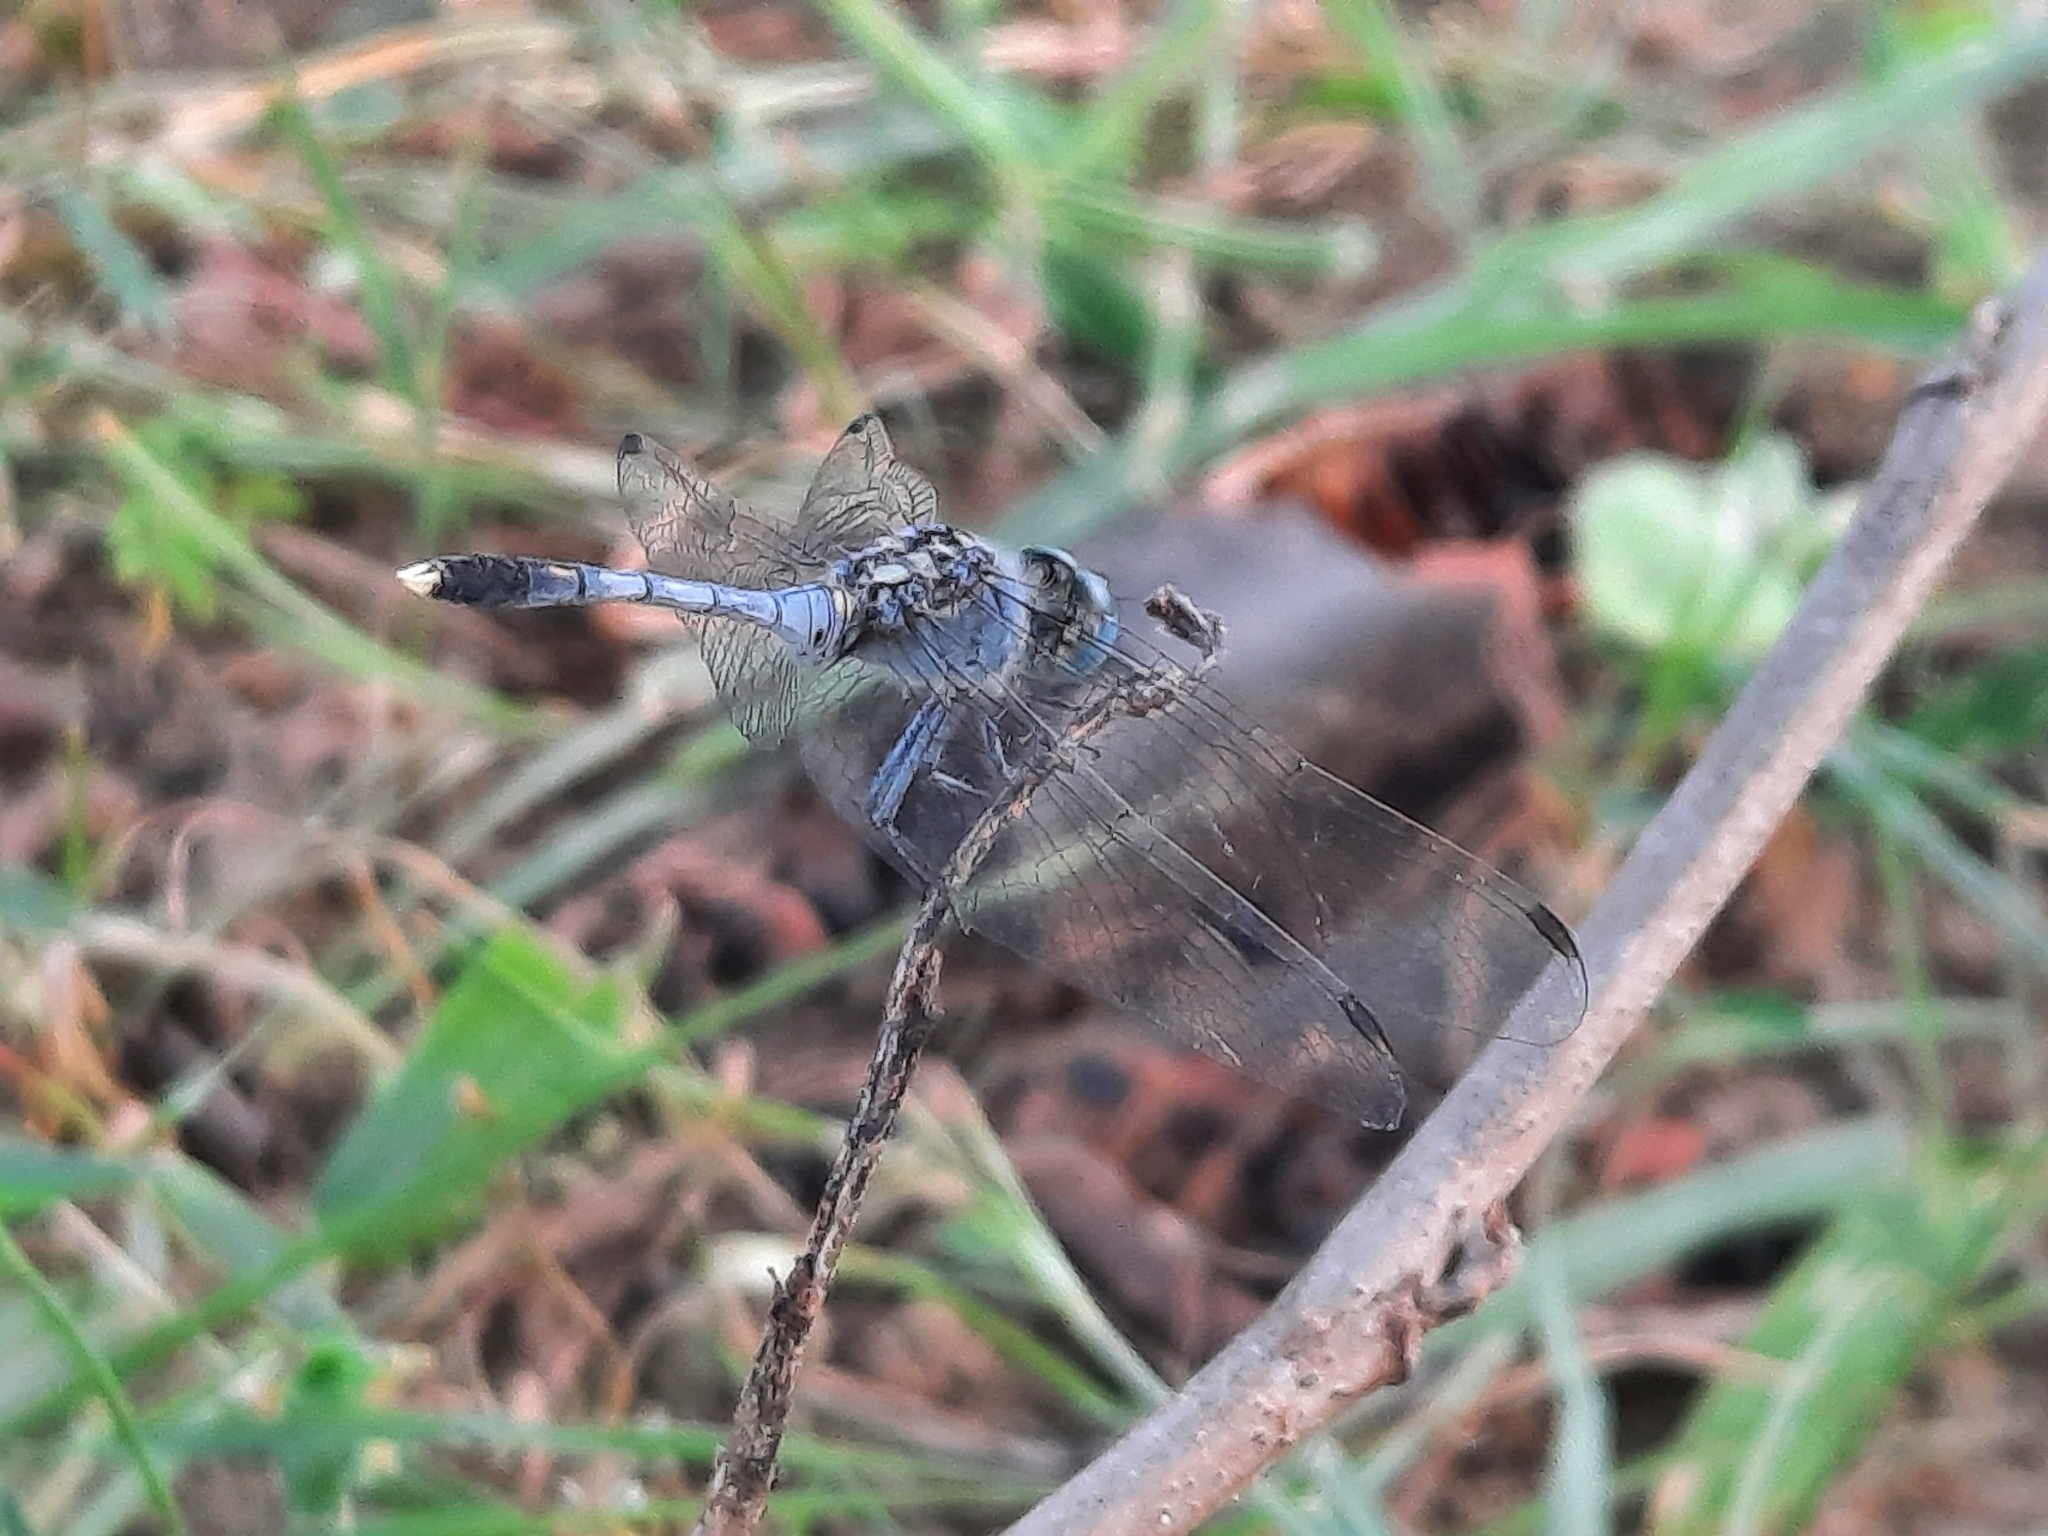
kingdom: Animalia
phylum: Arthropoda
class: Insecta
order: Odonata
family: Libellulidae
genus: Diplacodes
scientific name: Diplacodes trivialis
